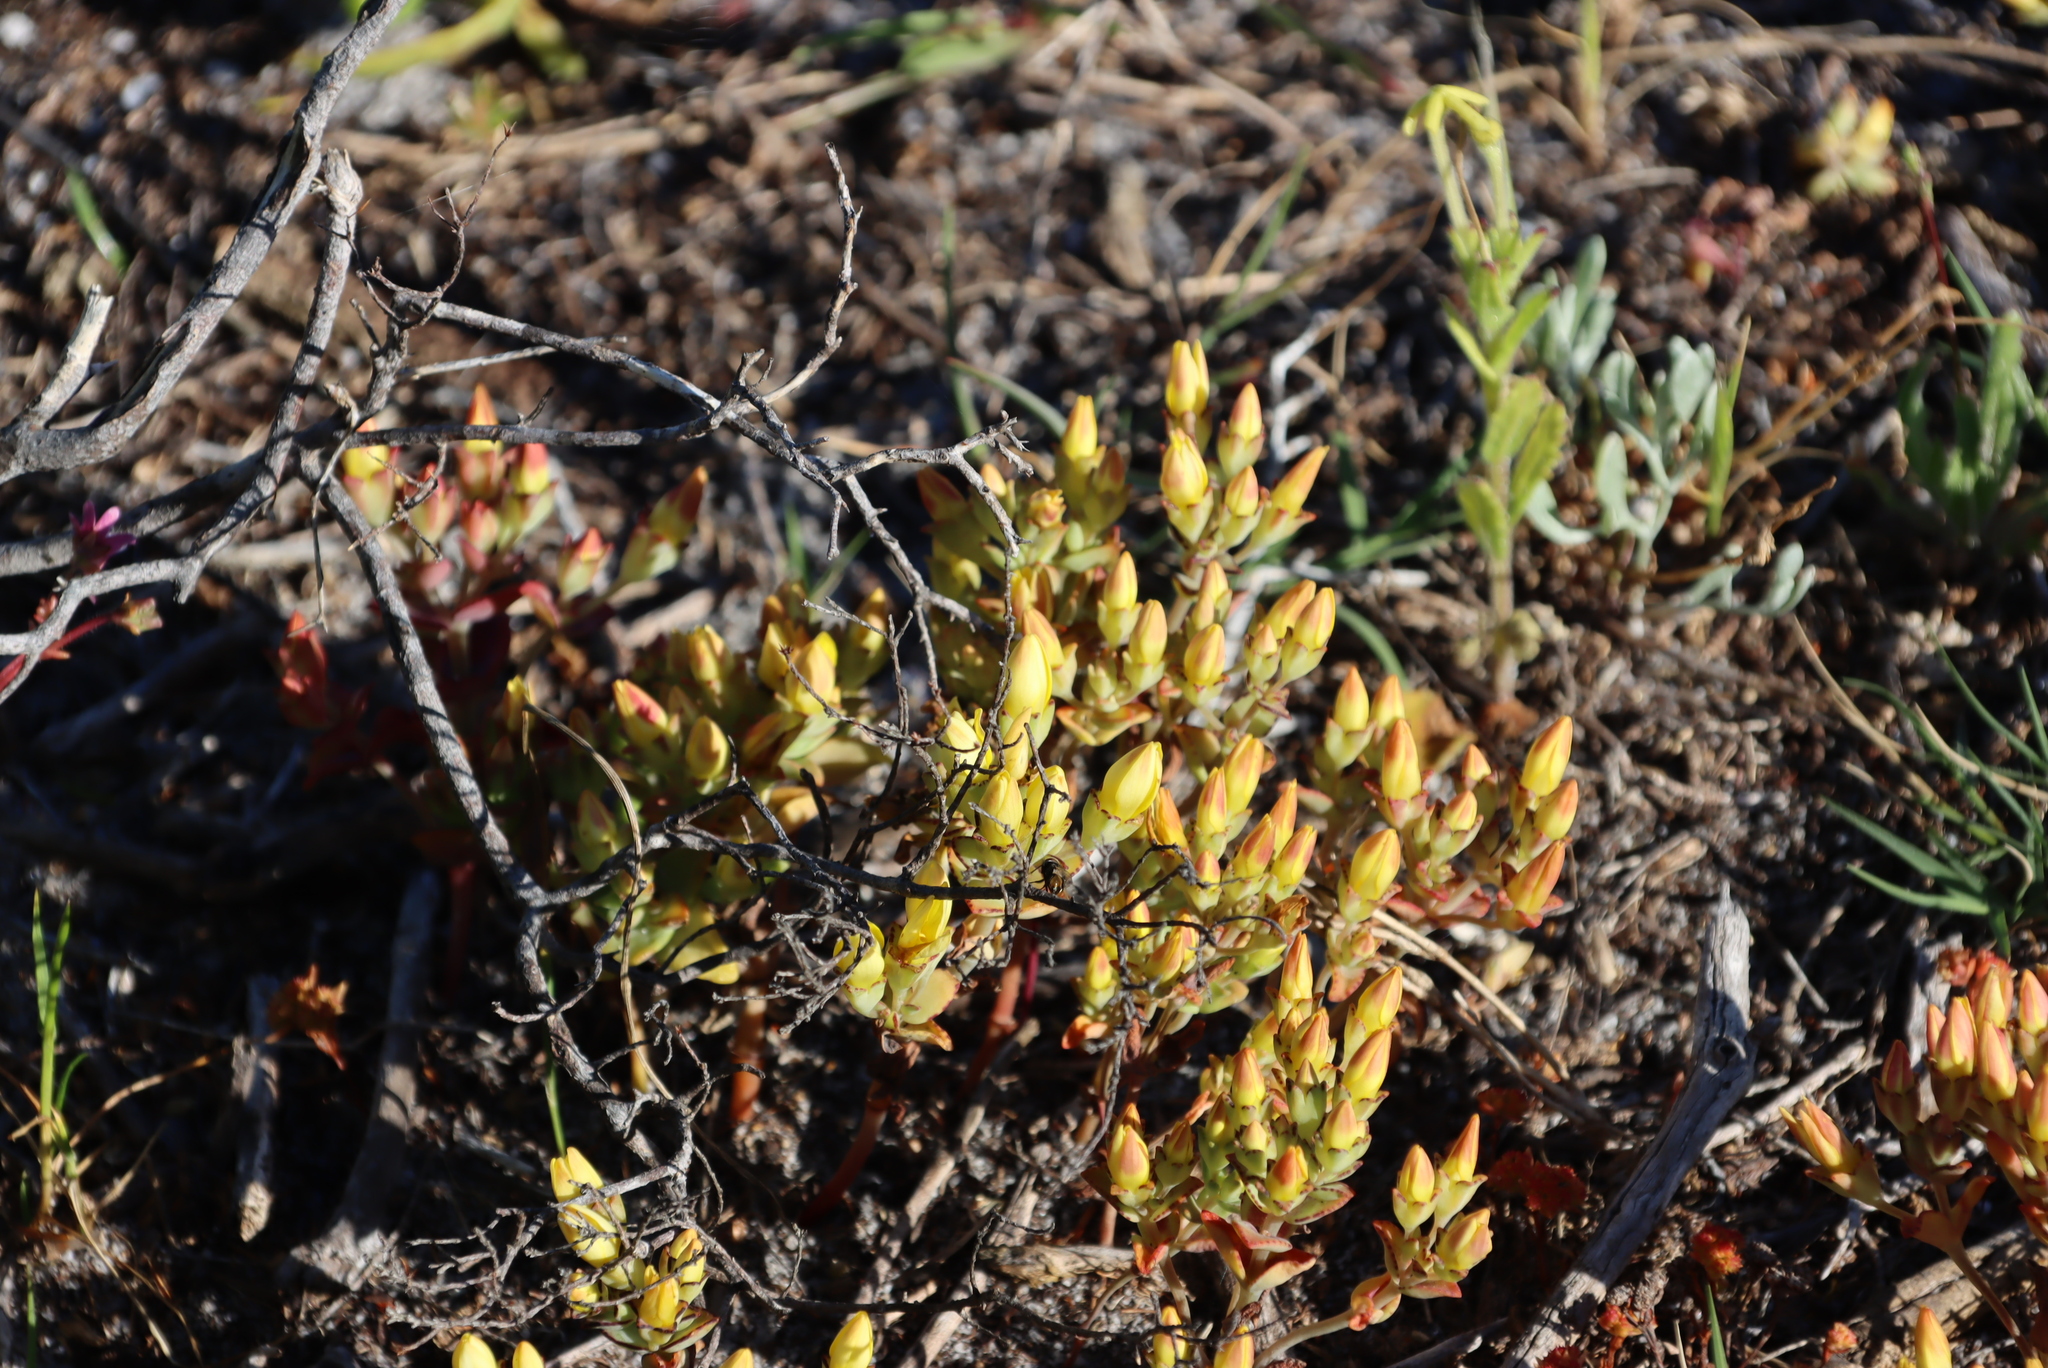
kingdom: Plantae
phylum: Tracheophyta
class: Magnoliopsida
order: Saxifragales
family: Crassulaceae
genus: Crassula
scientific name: Crassula dichotoma
